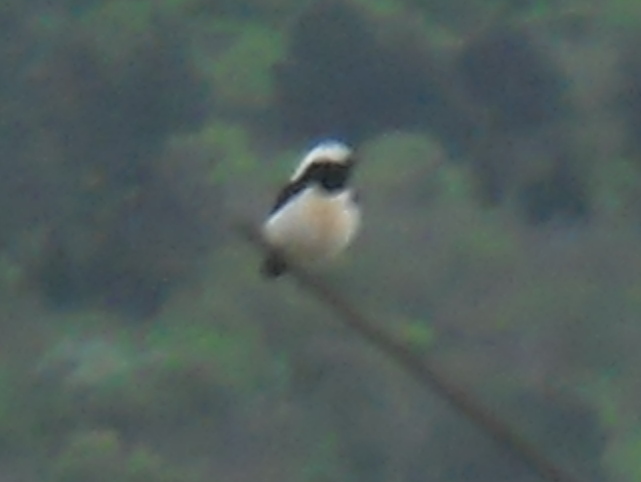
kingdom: Animalia
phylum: Chordata
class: Aves
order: Passeriformes
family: Muscicapidae
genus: Oenanthe
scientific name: Oenanthe pleschanka
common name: Pied wheatear
